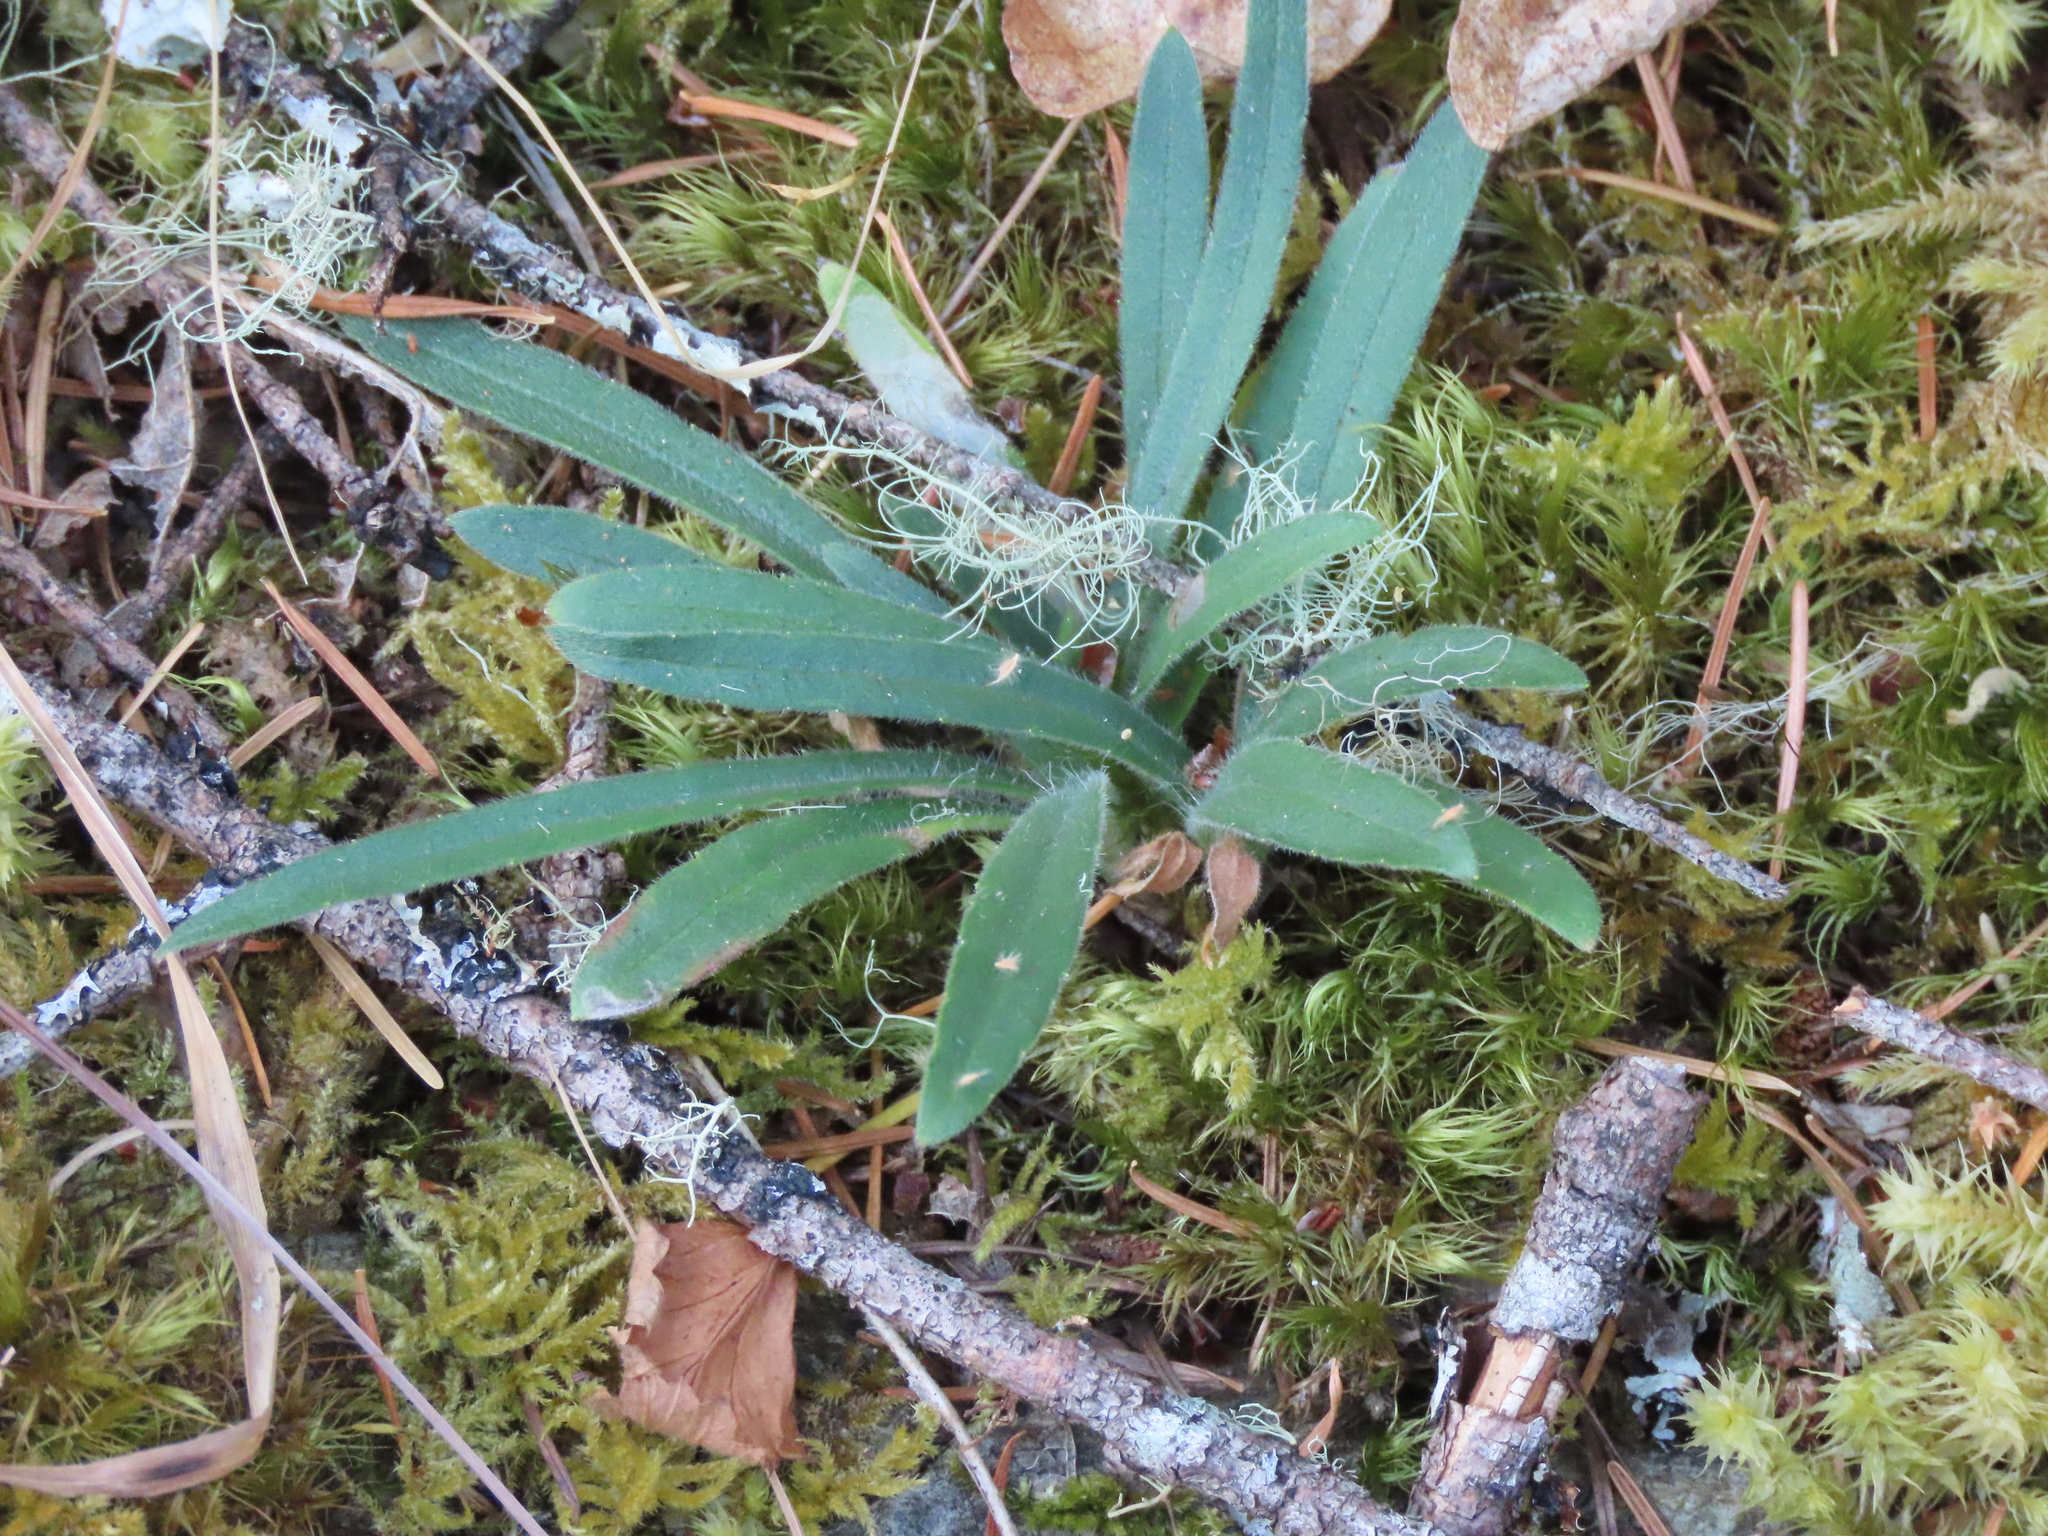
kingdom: Plantae
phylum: Tracheophyta
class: Magnoliopsida
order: Asterales
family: Asteraceae
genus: Anisocarpus
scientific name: Anisocarpus madioides
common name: Woodland madia
